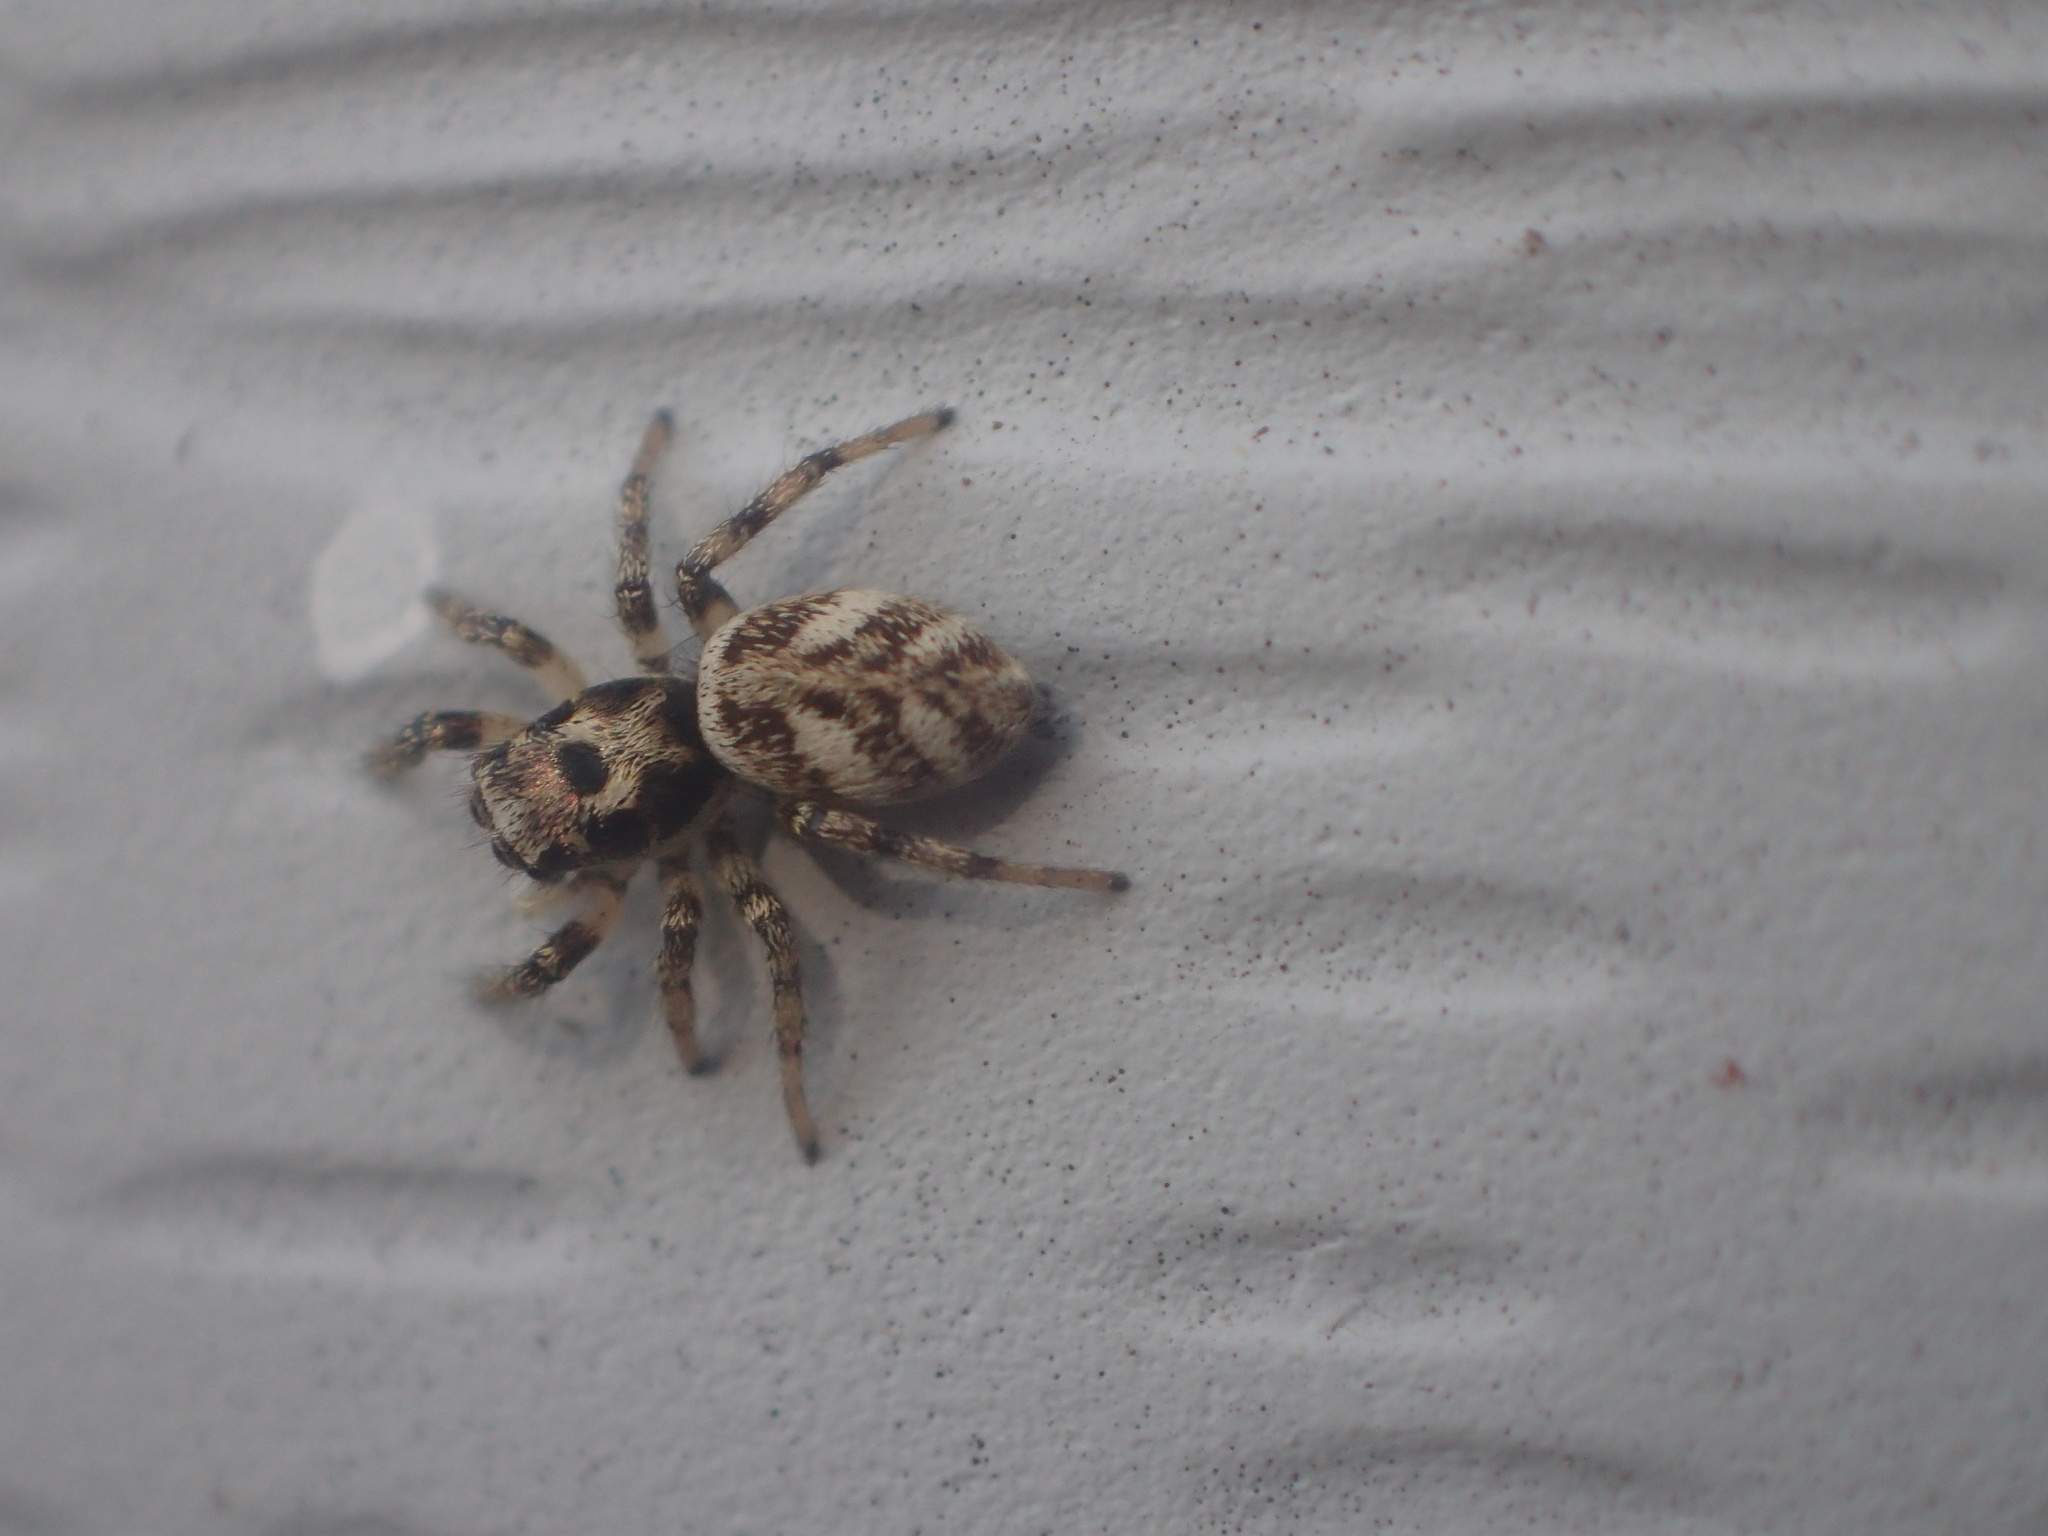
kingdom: Animalia
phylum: Arthropoda
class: Arachnida
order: Araneae
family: Salticidae
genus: Salticus
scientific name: Salticus scenicus
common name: Zebra jumper
